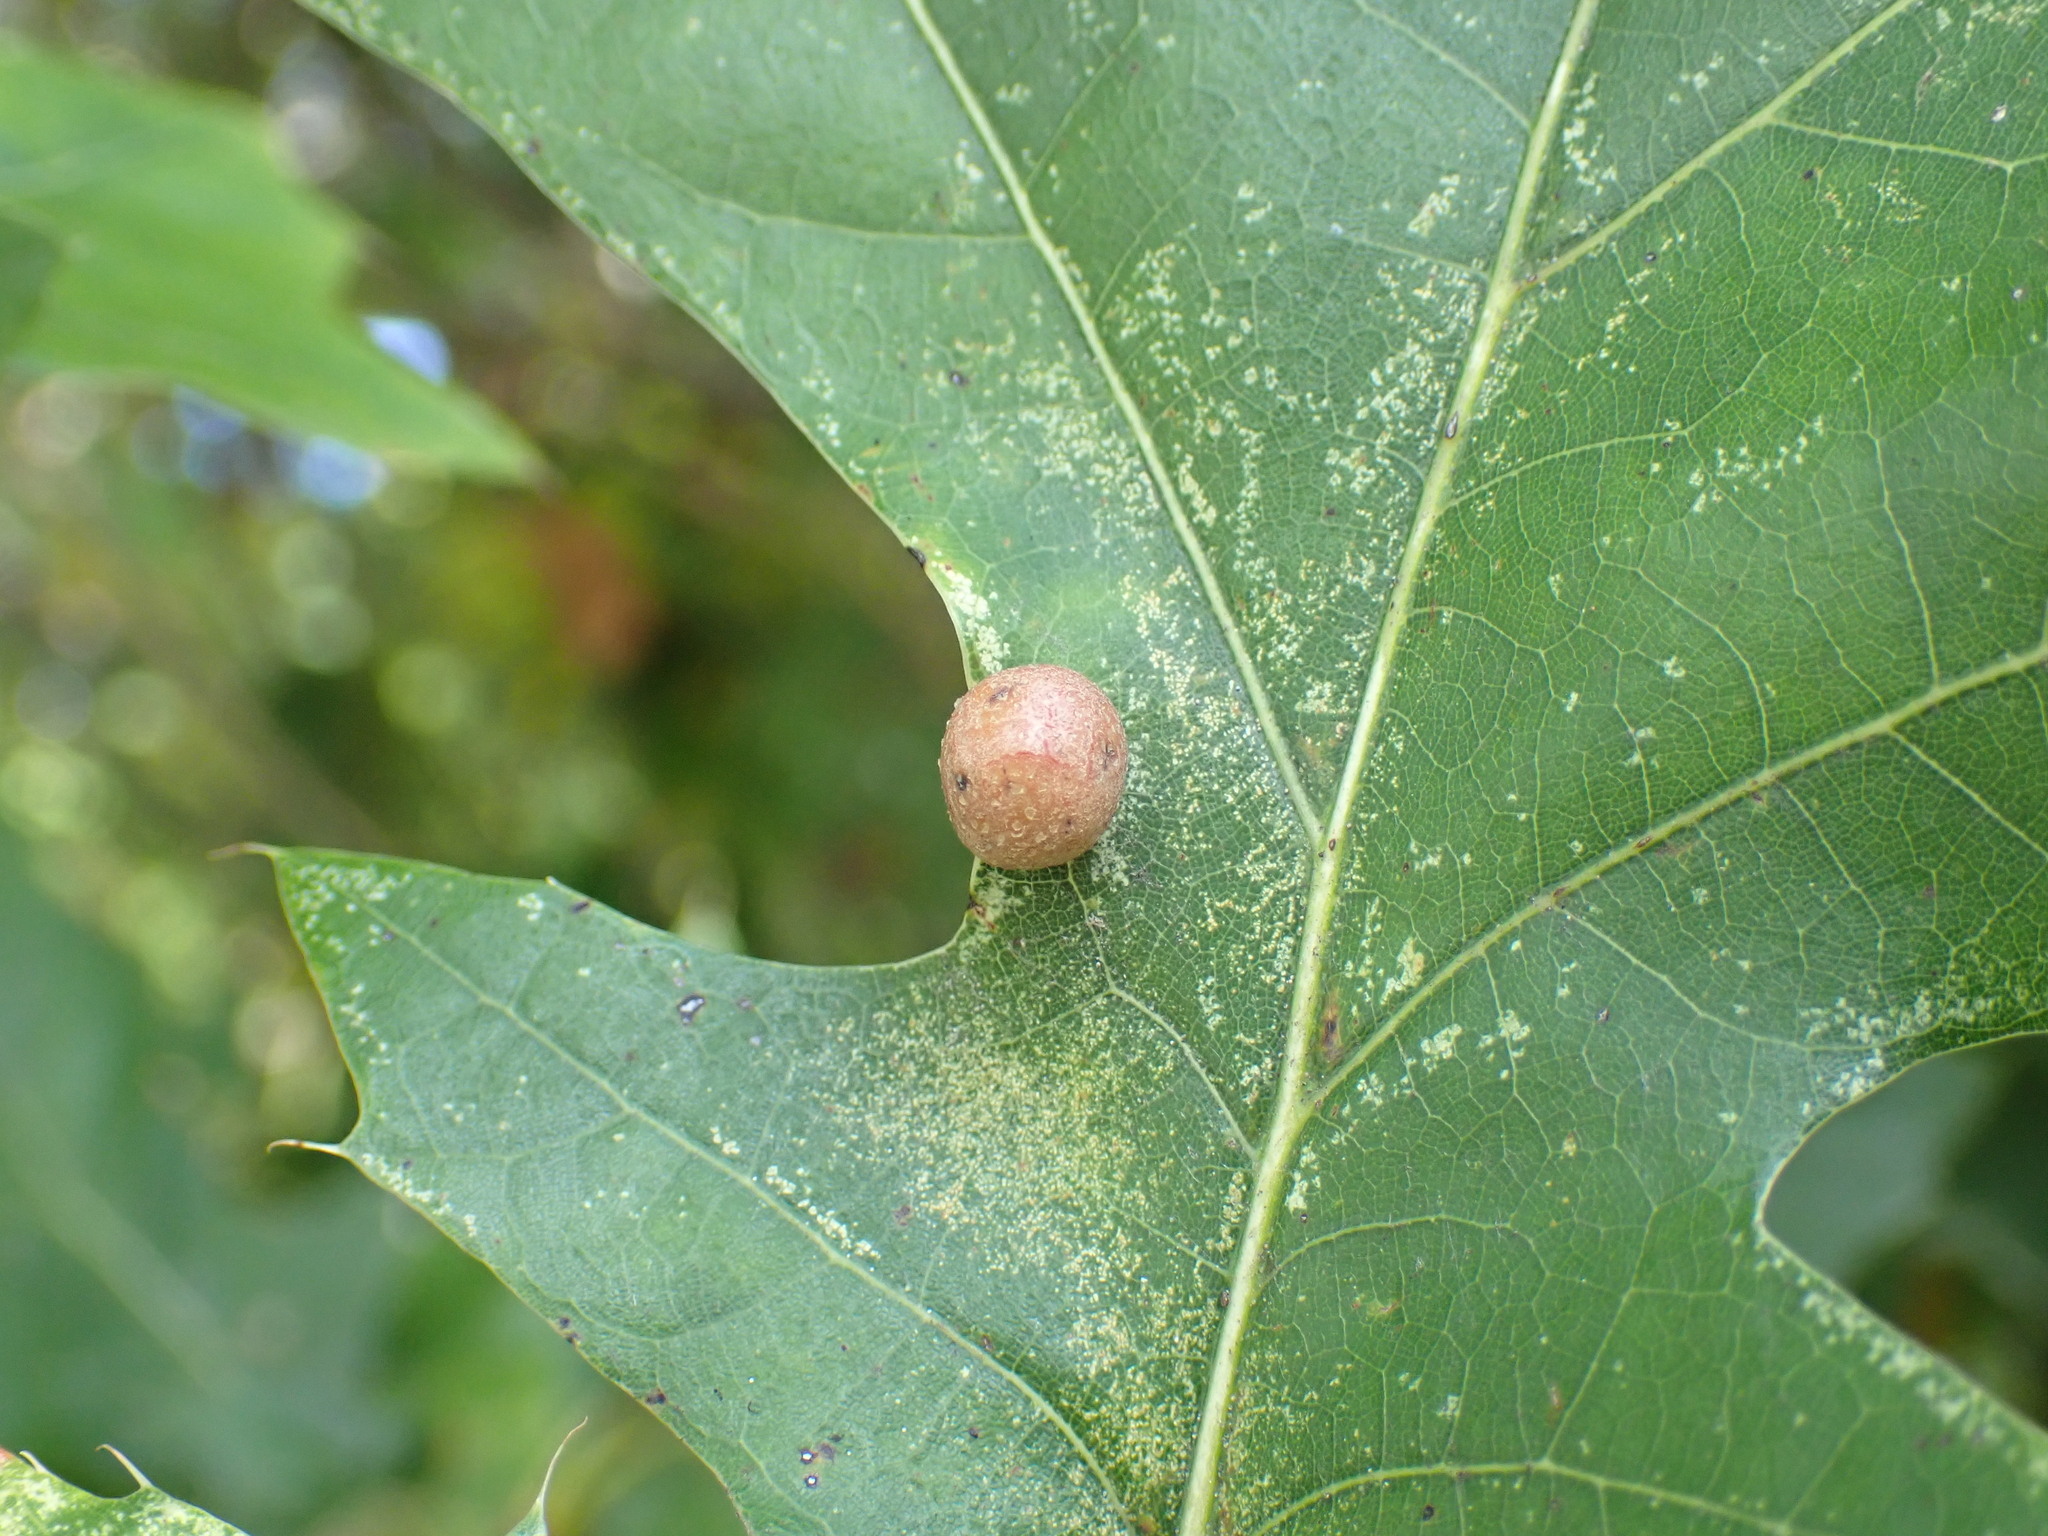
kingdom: Animalia
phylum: Arthropoda
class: Insecta
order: Diptera
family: Cecidomyiidae
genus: Polystepha
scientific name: Polystepha pilulae
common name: Oak leaf gall midge
